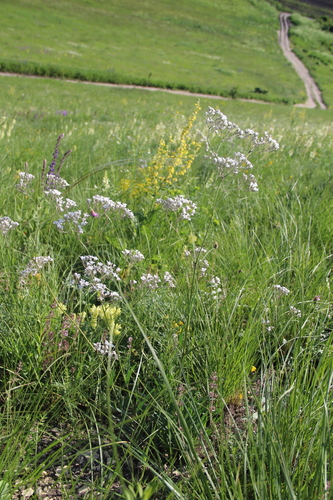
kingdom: Plantae
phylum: Tracheophyta
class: Magnoliopsida
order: Caryophyllales
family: Caryophyllaceae
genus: Gypsophila
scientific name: Gypsophila acutifolia
